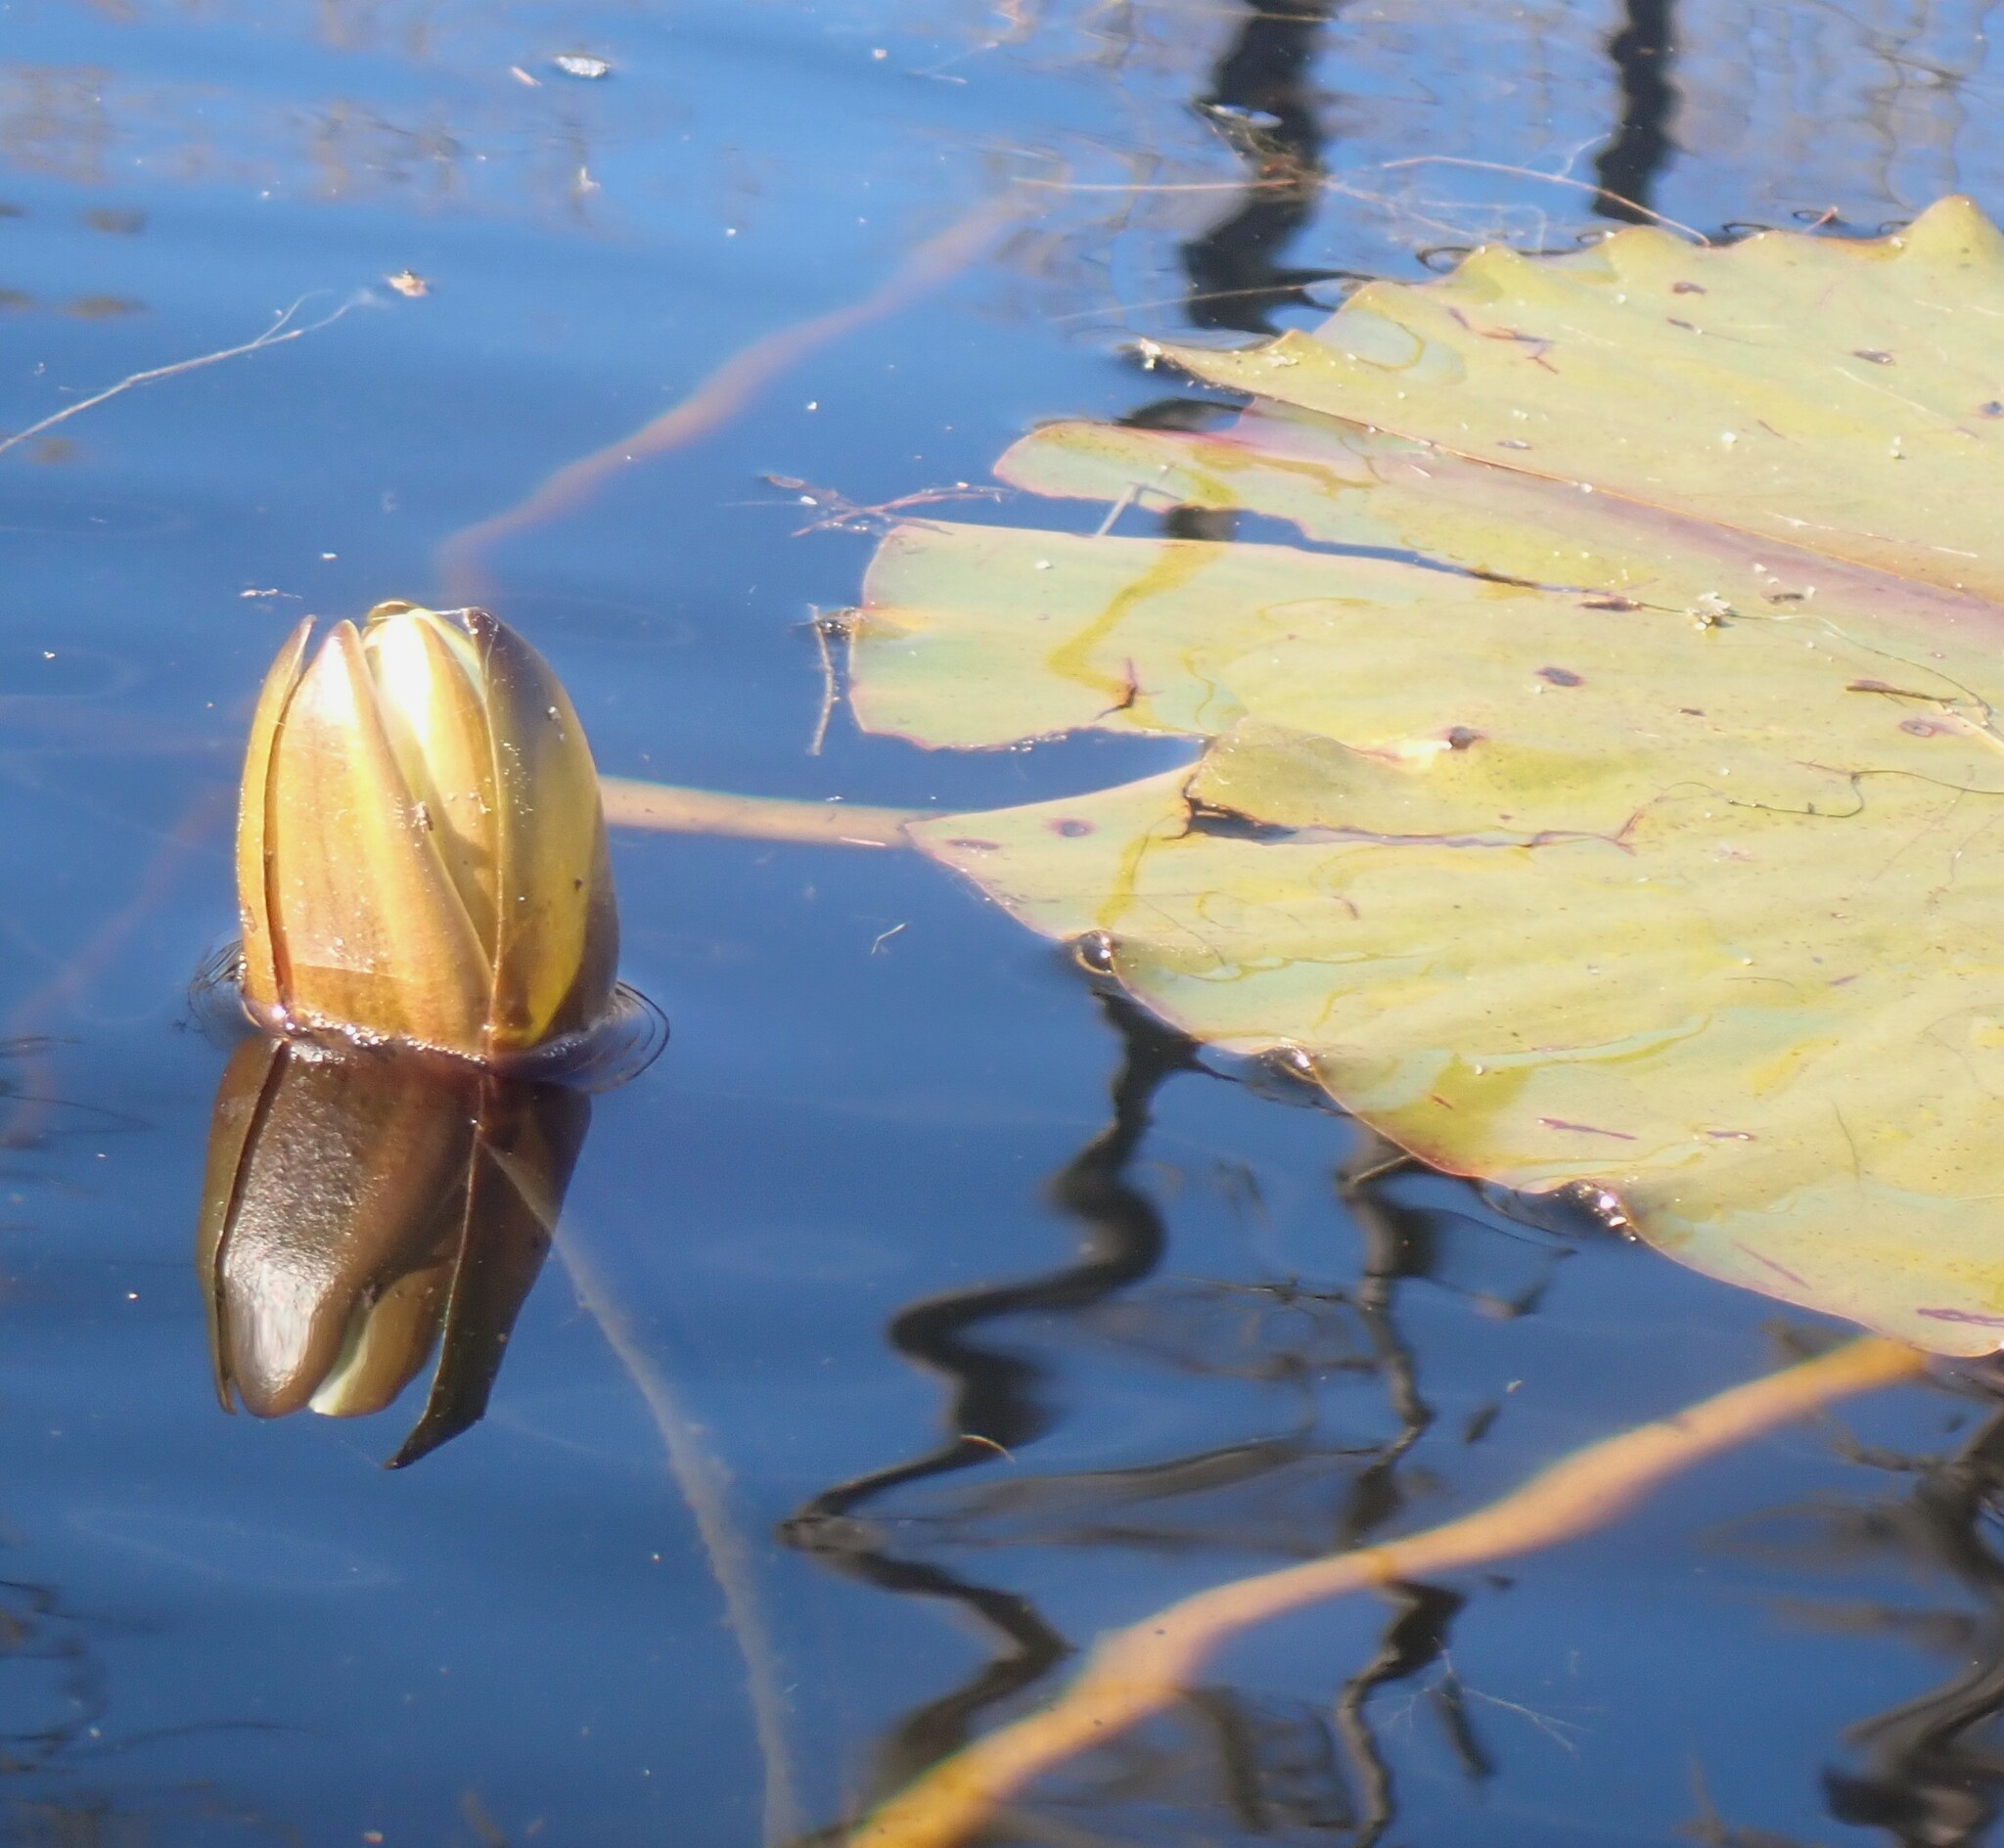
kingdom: Plantae
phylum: Tracheophyta
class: Magnoliopsida
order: Nymphaeales
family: Nymphaeaceae
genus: Nymphaea
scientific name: Nymphaea odorata
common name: Fragrant water-lily
